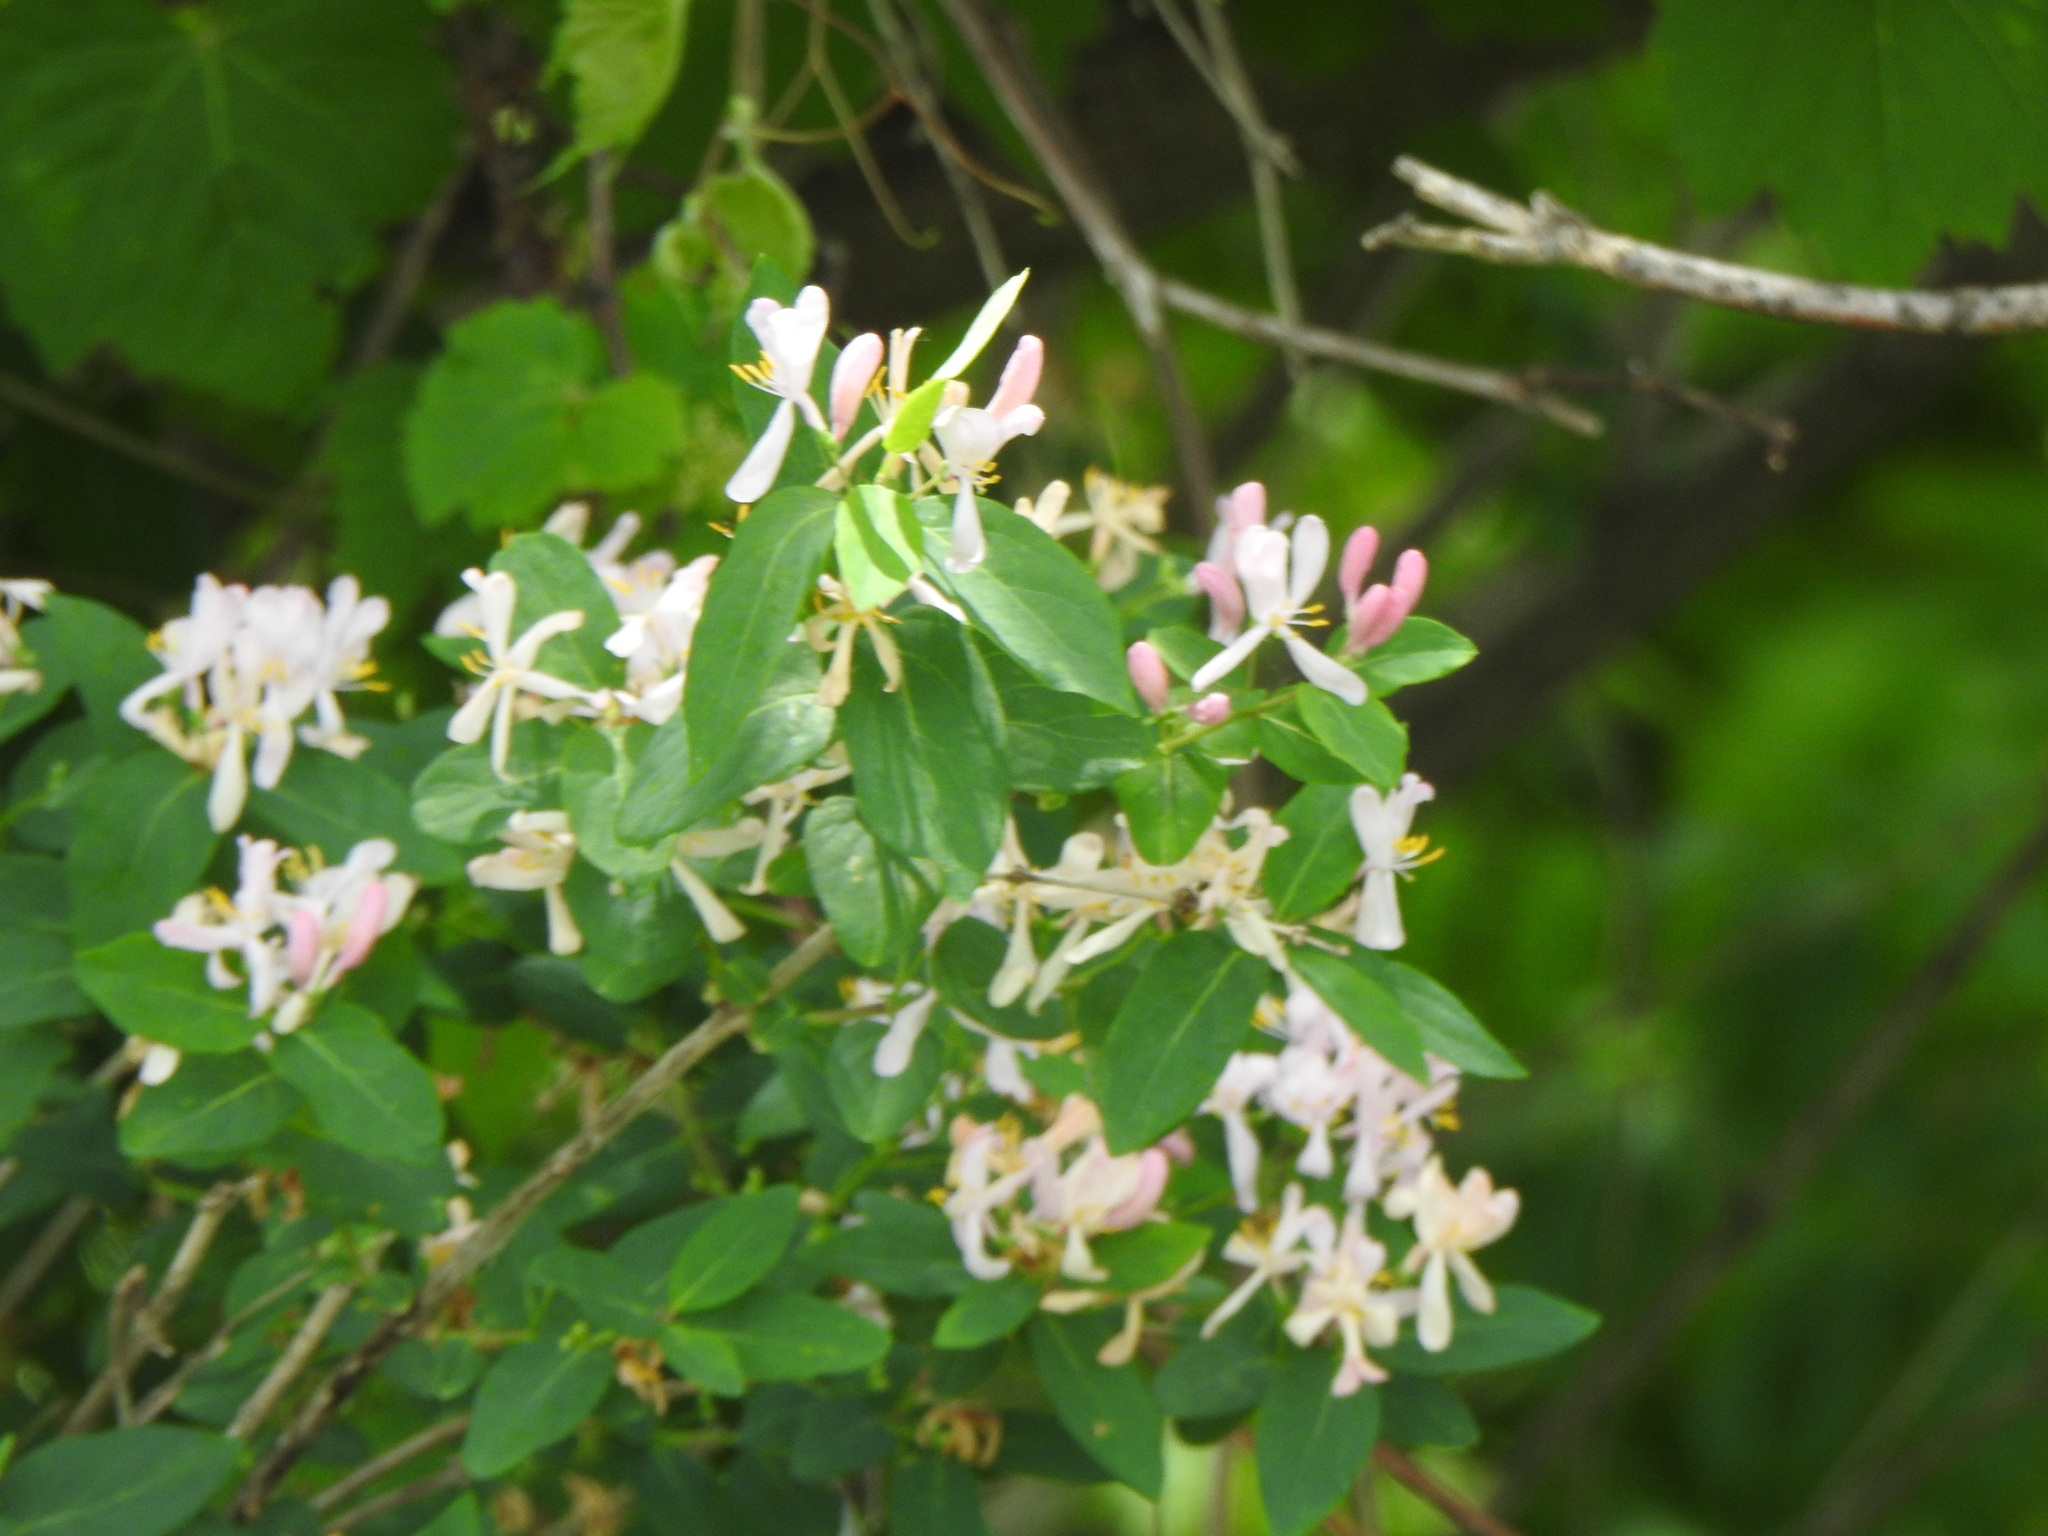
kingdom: Plantae
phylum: Tracheophyta
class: Magnoliopsida
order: Dipsacales
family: Caprifoliaceae
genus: Lonicera
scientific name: Lonicera
